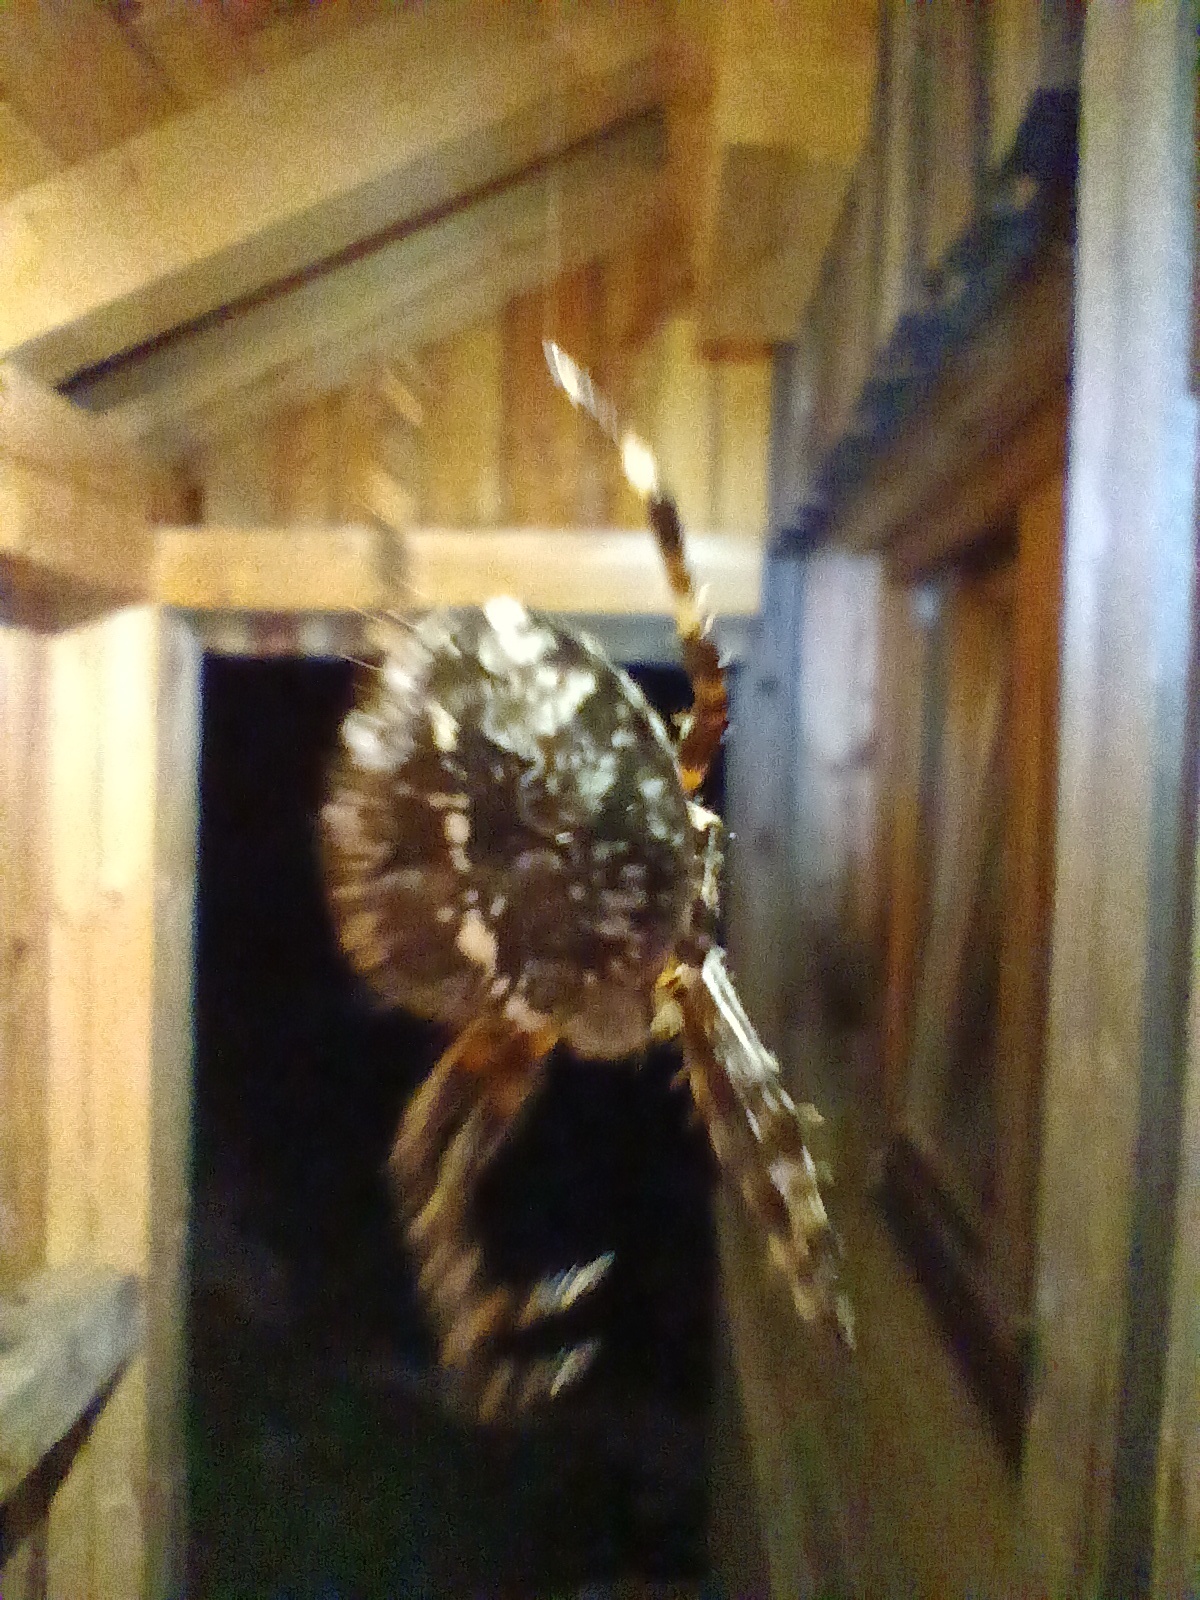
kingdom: Animalia
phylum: Arthropoda
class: Arachnida
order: Araneae
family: Araneidae
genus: Araneus
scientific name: Araneus diadematus
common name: Cross orbweaver
